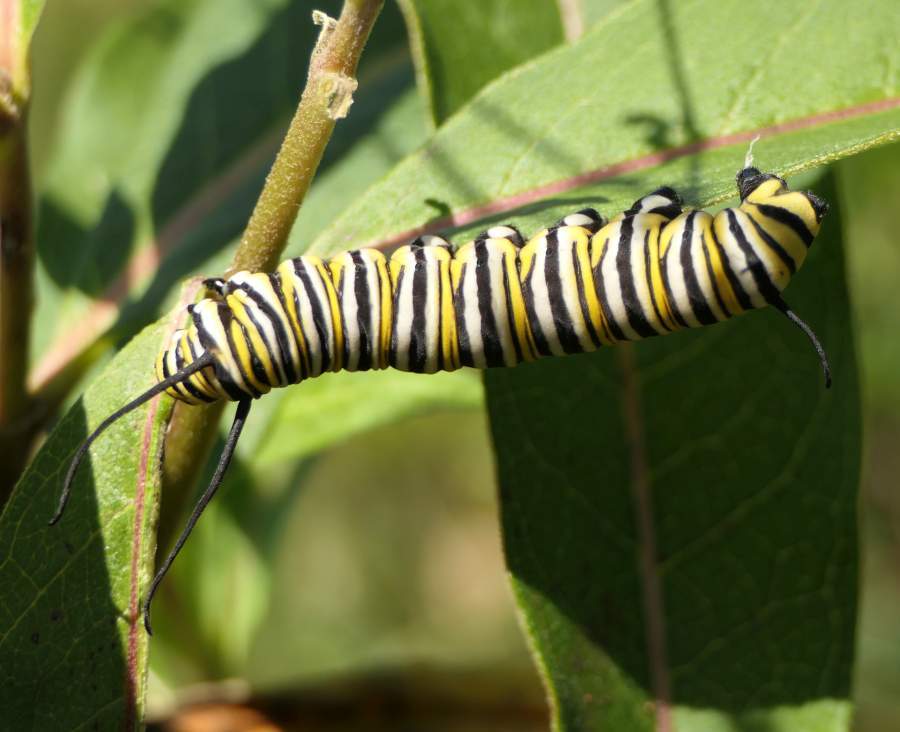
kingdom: Animalia
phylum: Arthropoda
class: Insecta
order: Lepidoptera
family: Nymphalidae
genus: Danaus
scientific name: Danaus plexippus
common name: Monarch
